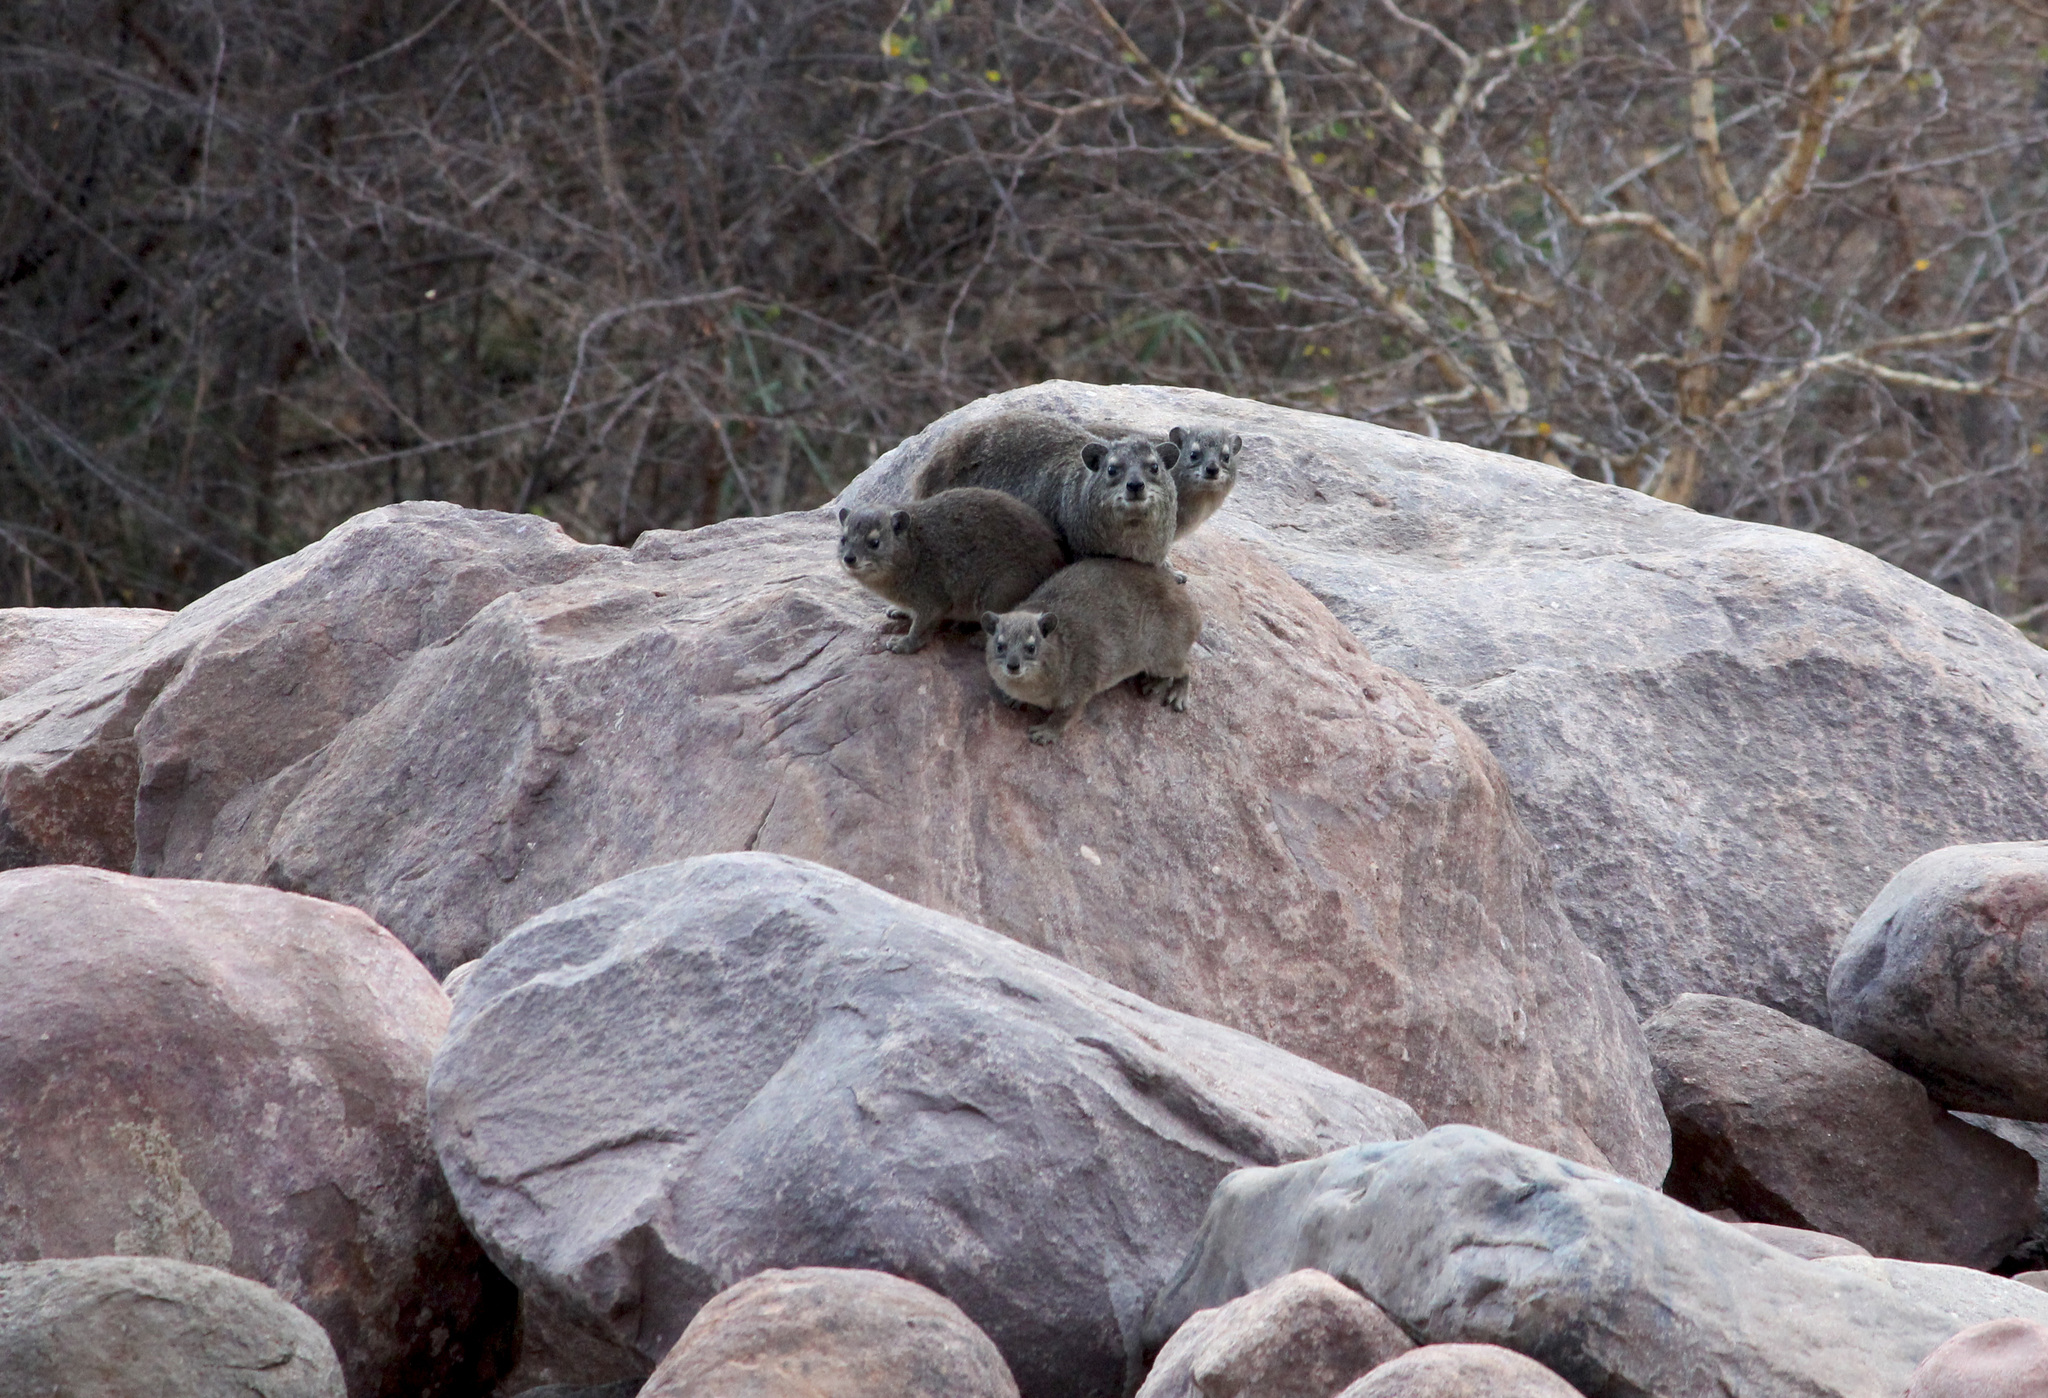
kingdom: Animalia
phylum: Chordata
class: Mammalia
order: Hyracoidea
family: Procaviidae
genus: Heterohyrax
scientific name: Heterohyrax brucei
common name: Bush hyrax
